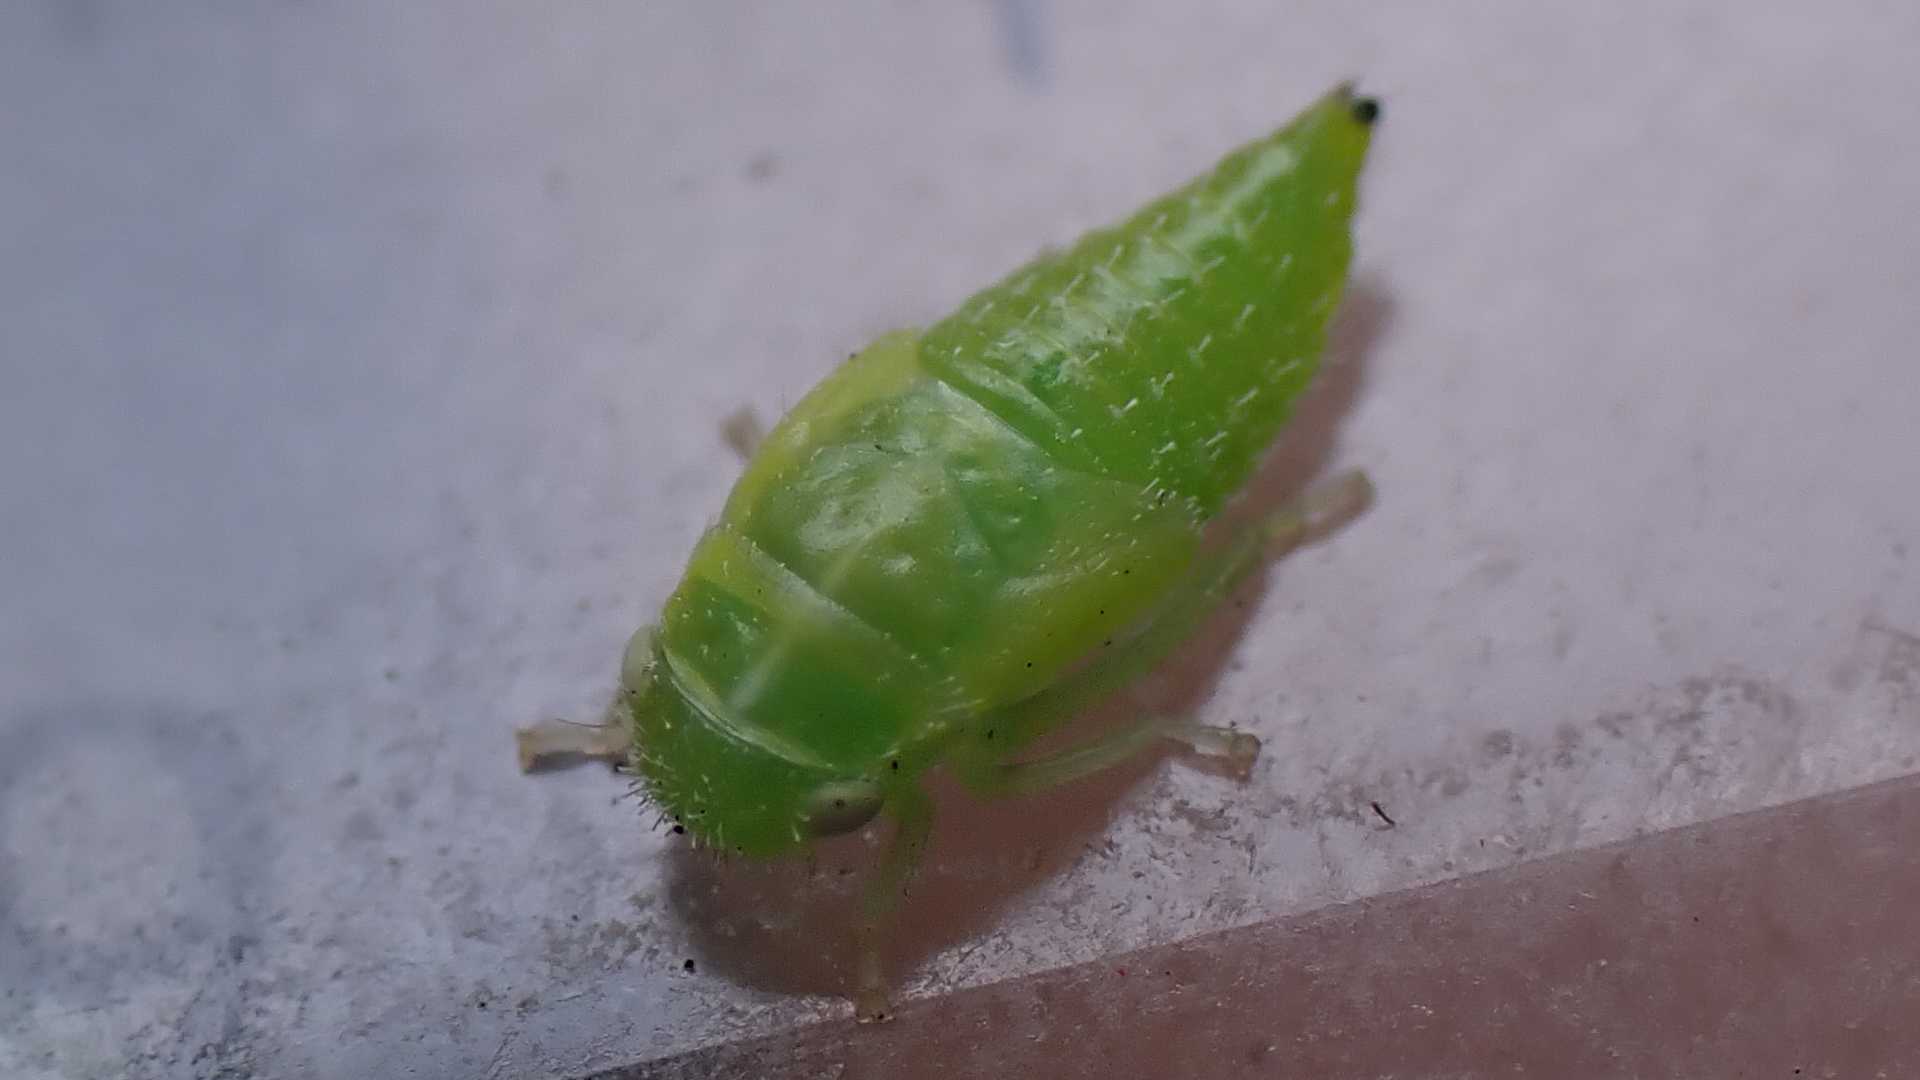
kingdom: Animalia
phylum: Arthropoda
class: Insecta
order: Hemiptera
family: Cicadellidae
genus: Stragania
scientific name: Stragania apicalis
